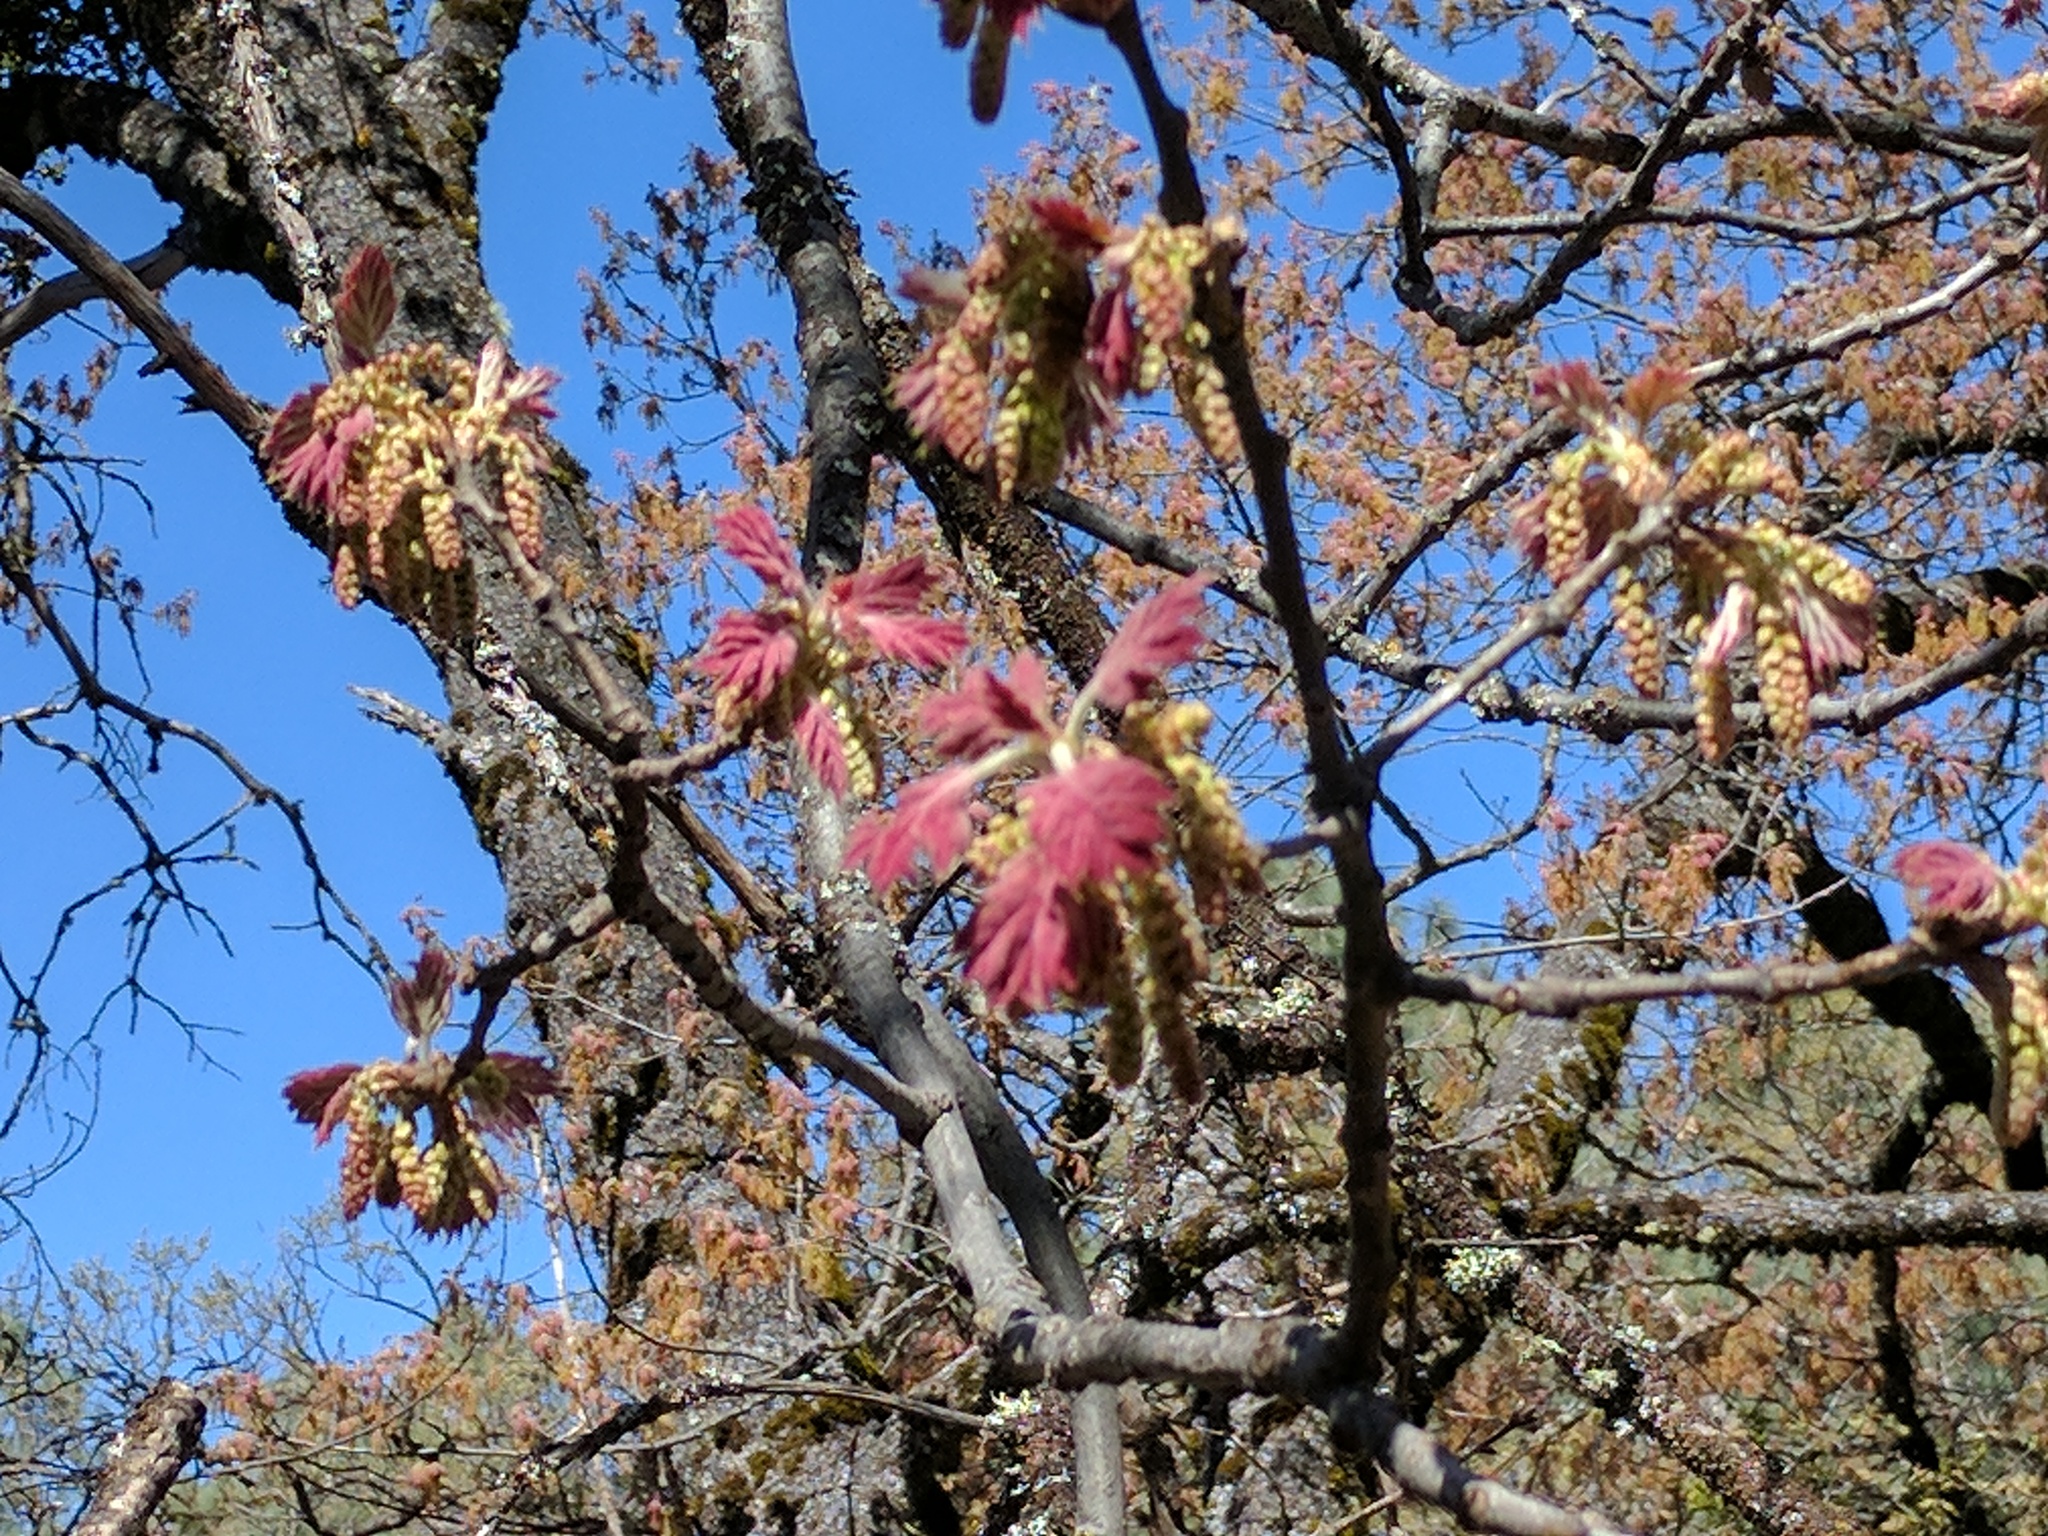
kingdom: Plantae
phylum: Tracheophyta
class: Magnoliopsida
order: Fagales
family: Fagaceae
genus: Quercus
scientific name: Quercus kelloggii
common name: California black oak
